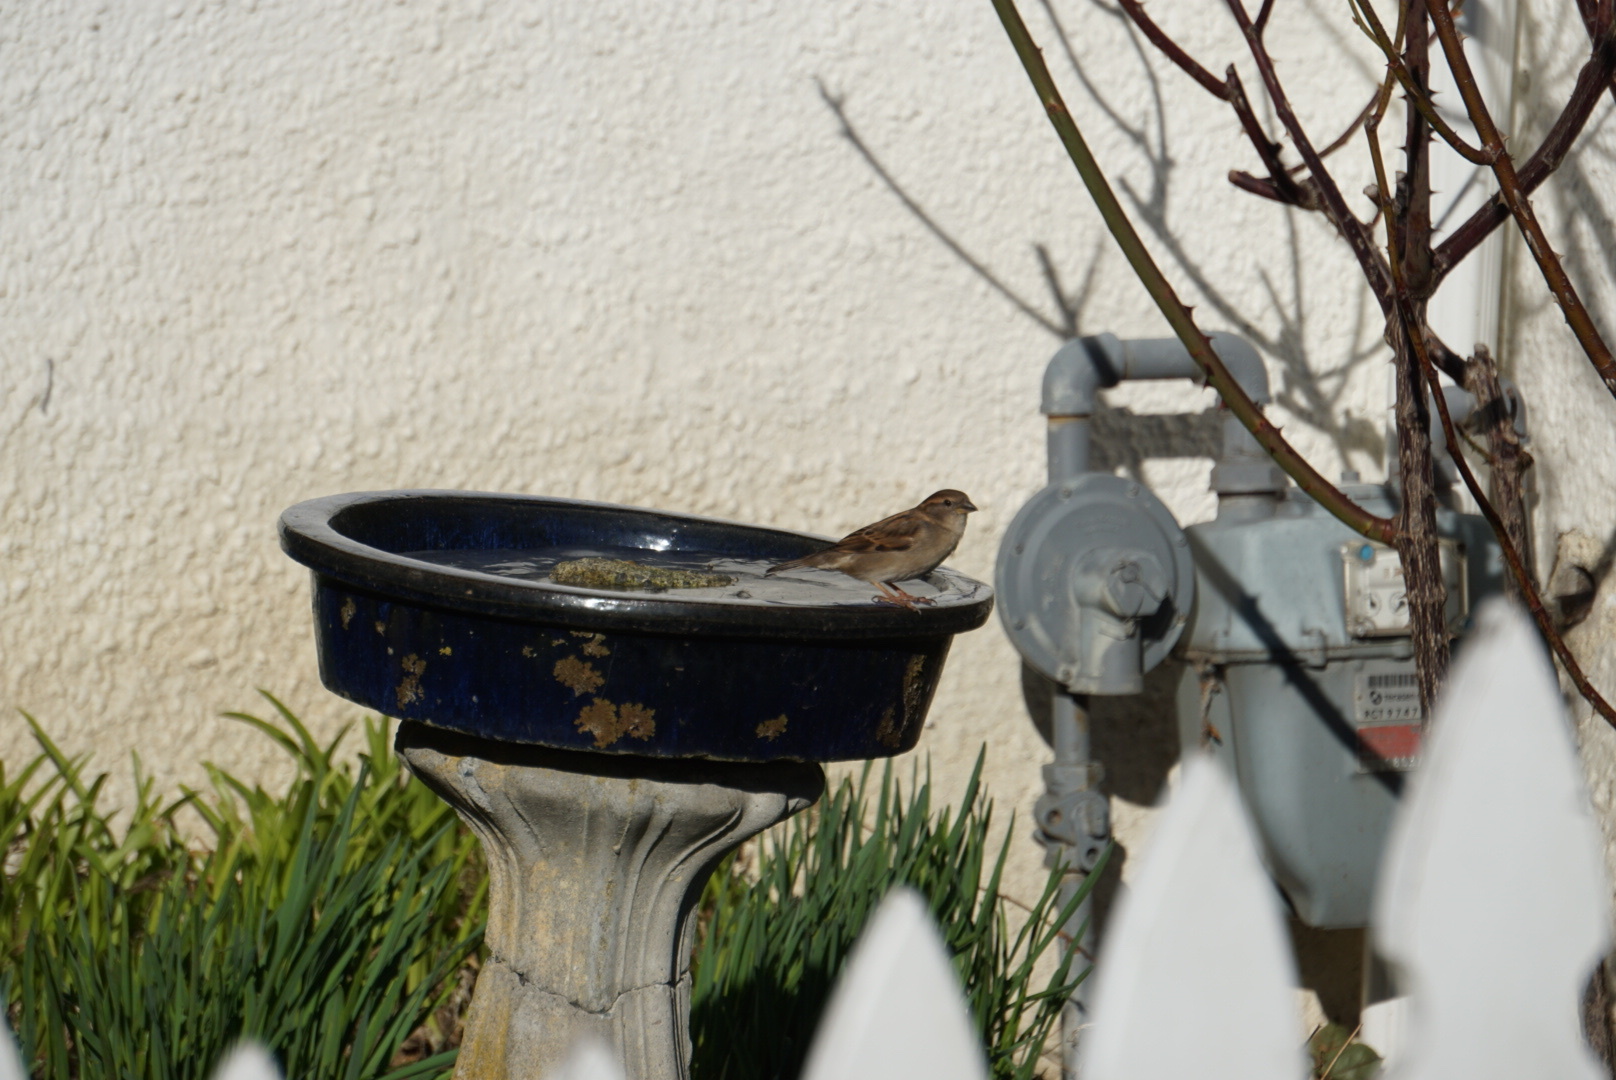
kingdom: Animalia
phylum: Chordata
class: Aves
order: Passeriformes
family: Passeridae
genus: Passer
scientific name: Passer domesticus
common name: House sparrow
